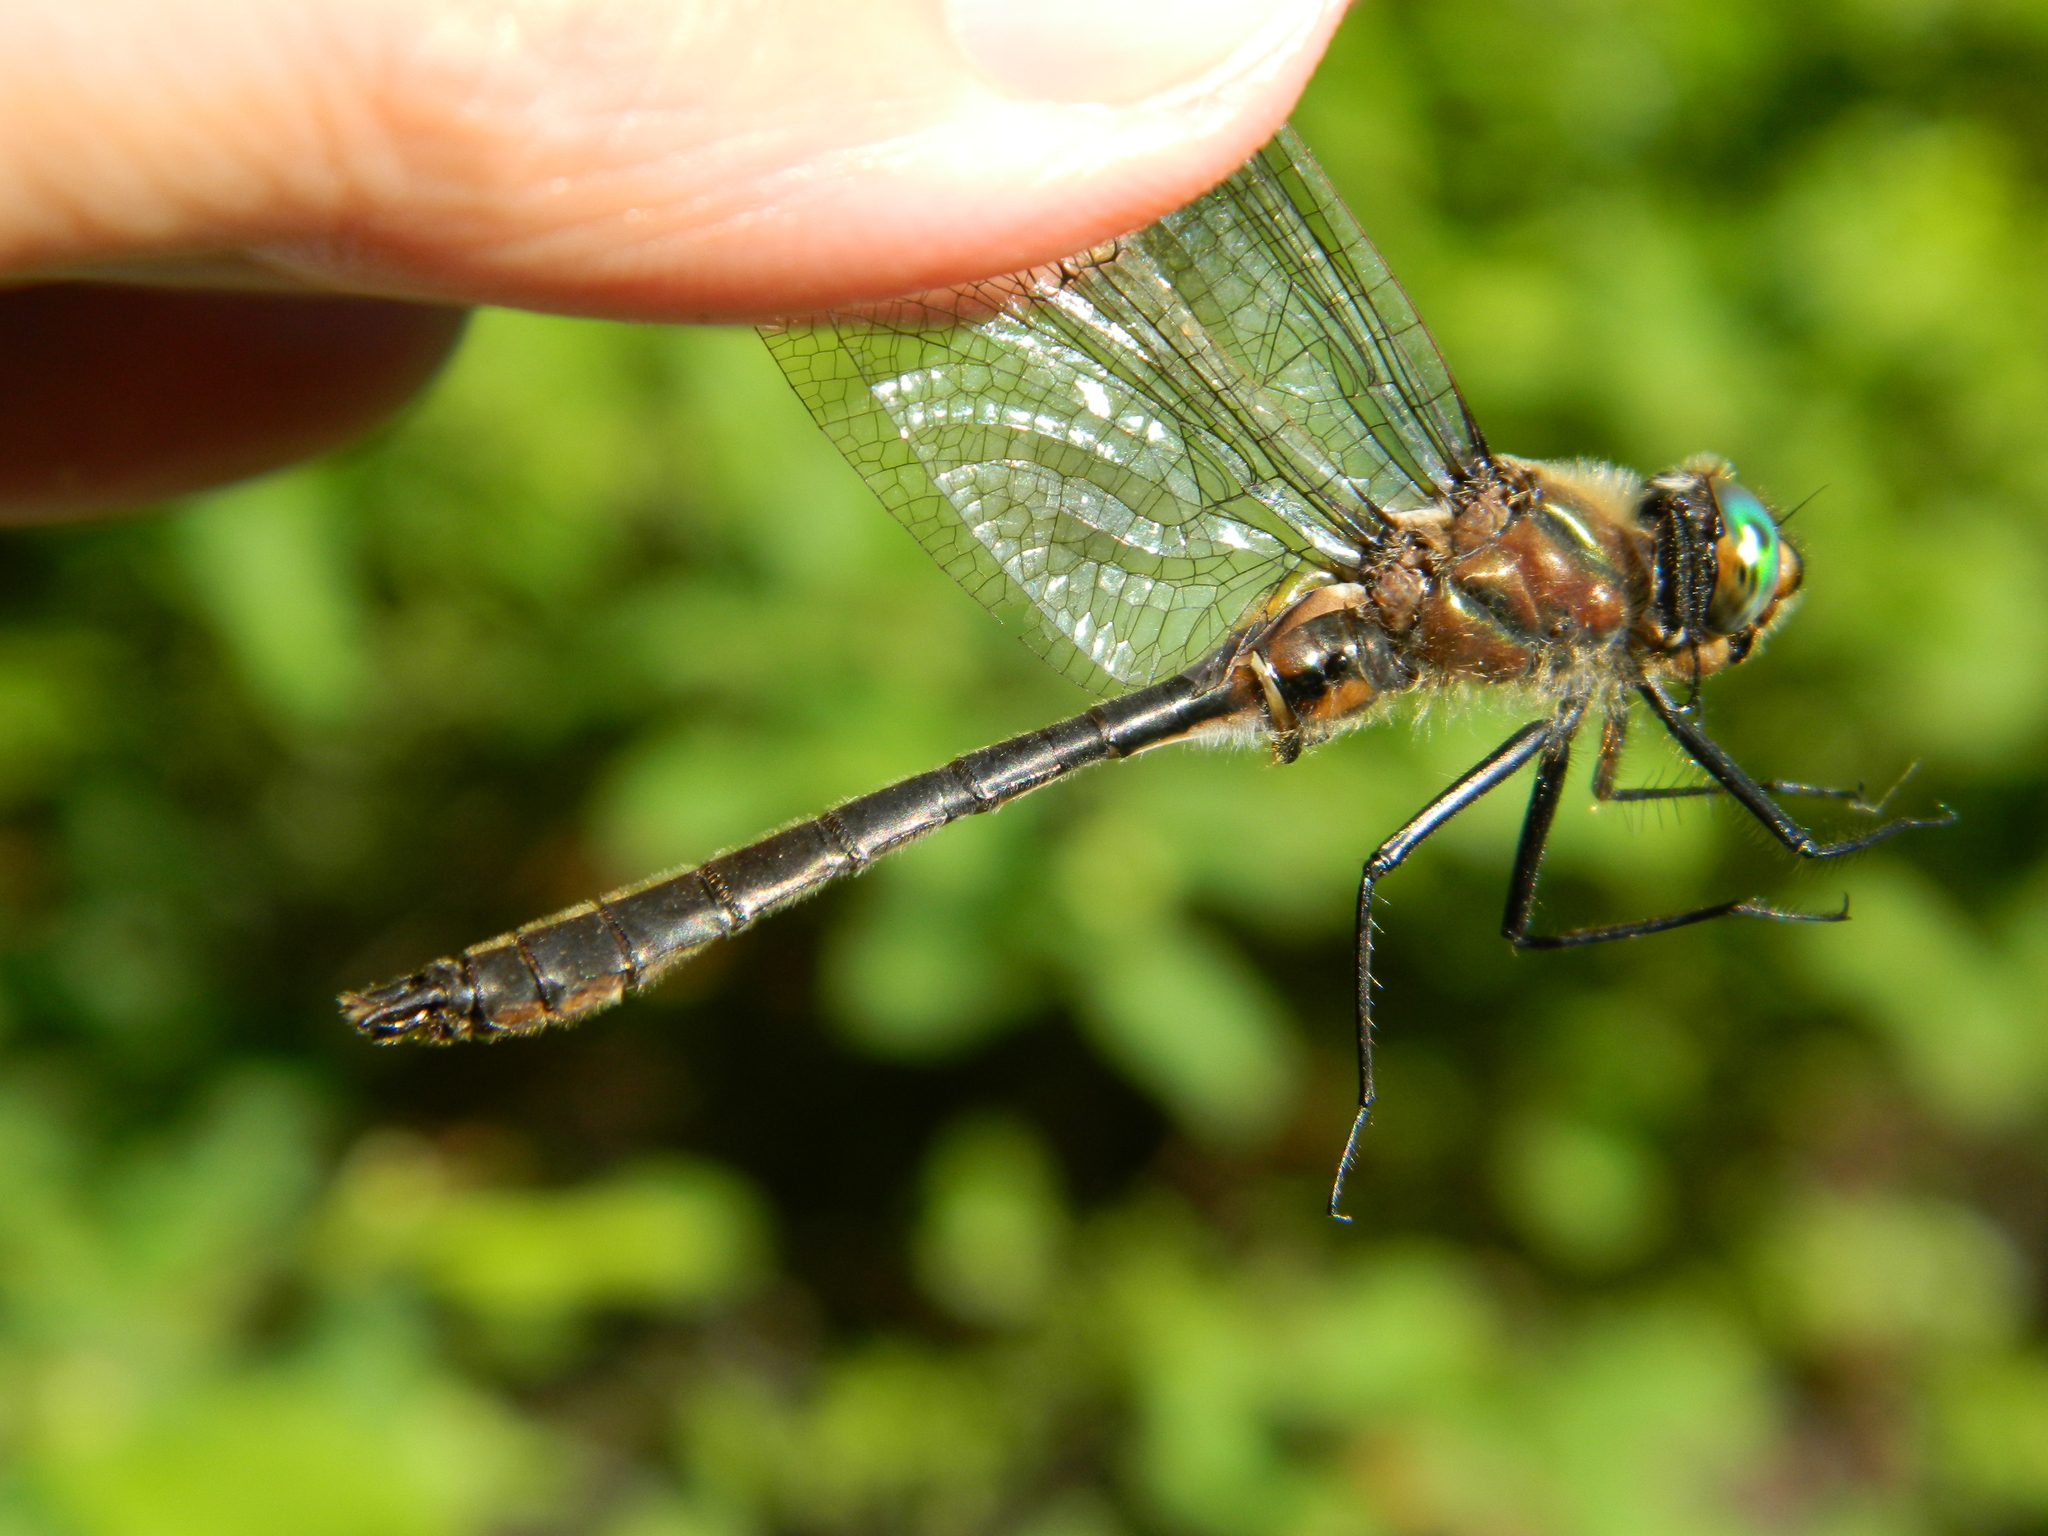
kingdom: Animalia
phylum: Arthropoda
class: Insecta
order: Odonata
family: Corduliidae
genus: Cordulia
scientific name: Cordulia shurtleffii
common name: American emerald
